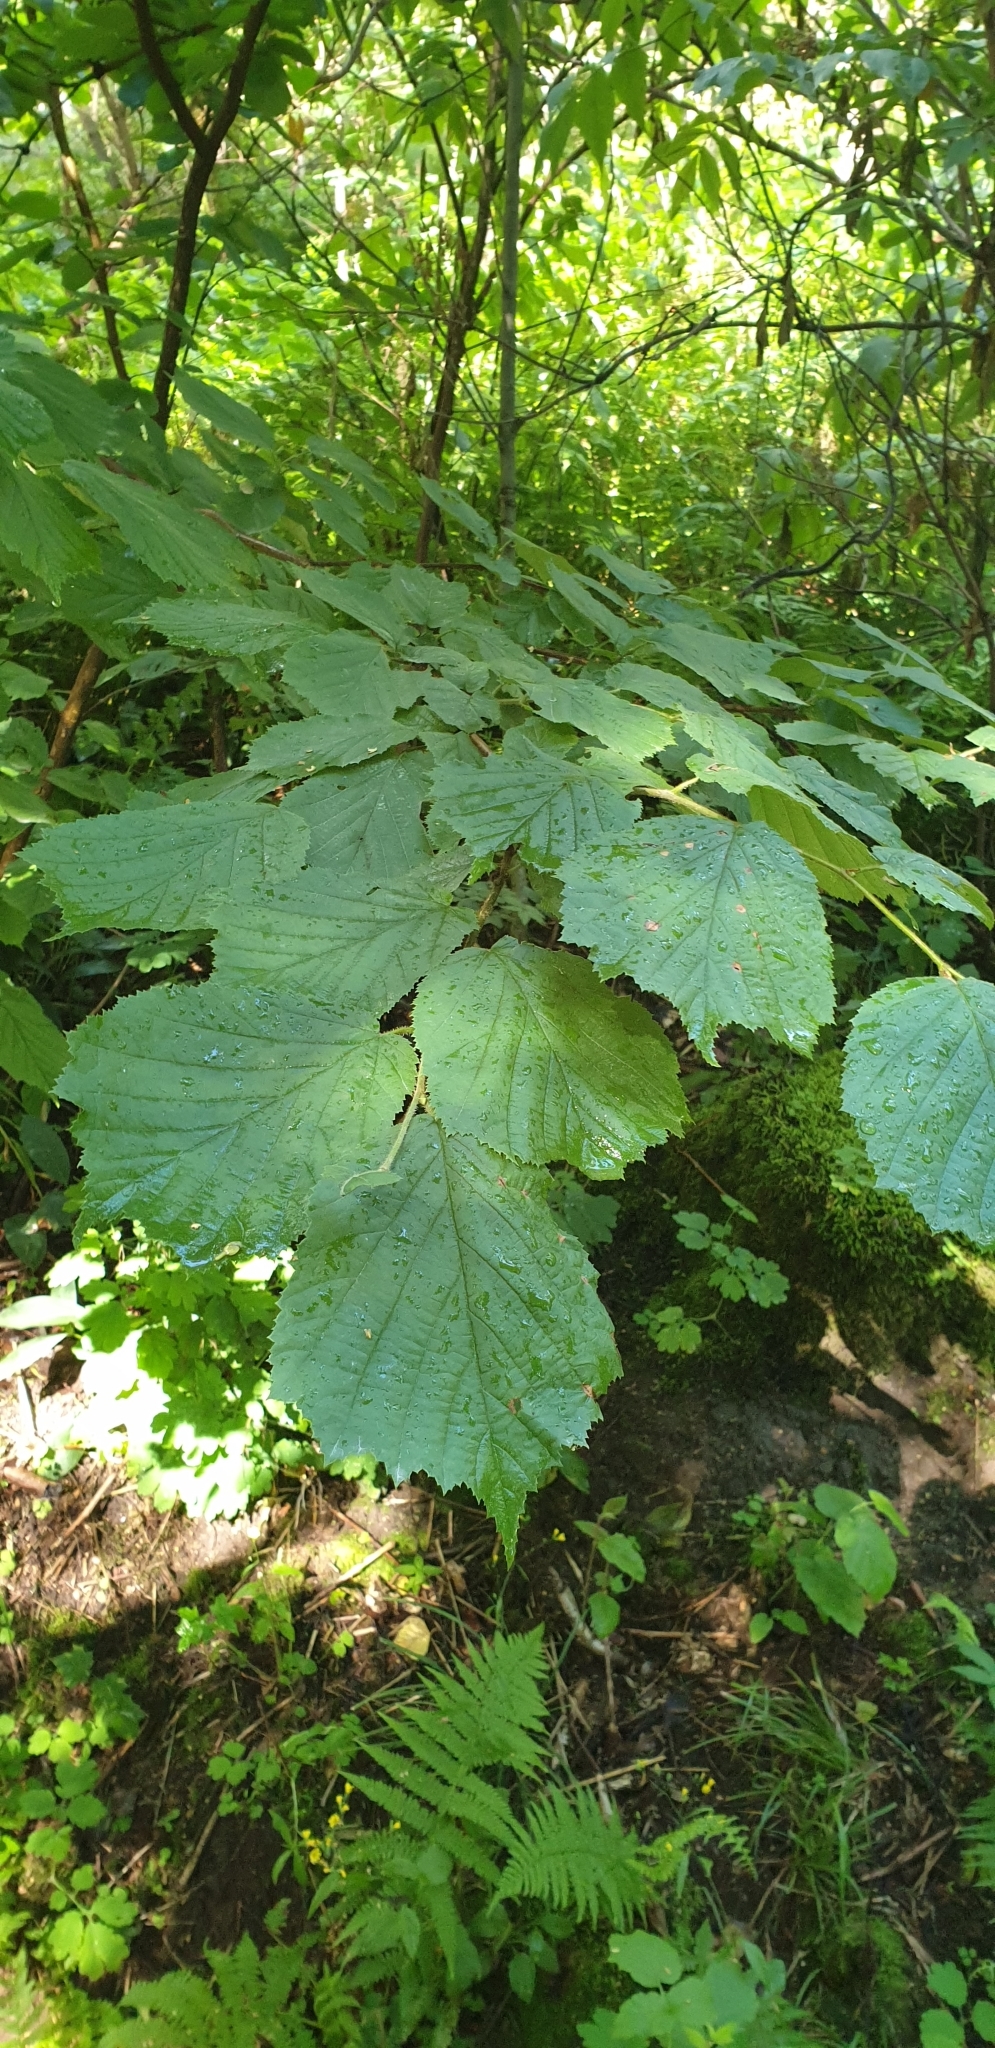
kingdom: Plantae
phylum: Tracheophyta
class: Magnoliopsida
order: Fagales
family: Betulaceae
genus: Corylus
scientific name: Corylus avellana
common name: European hazel
